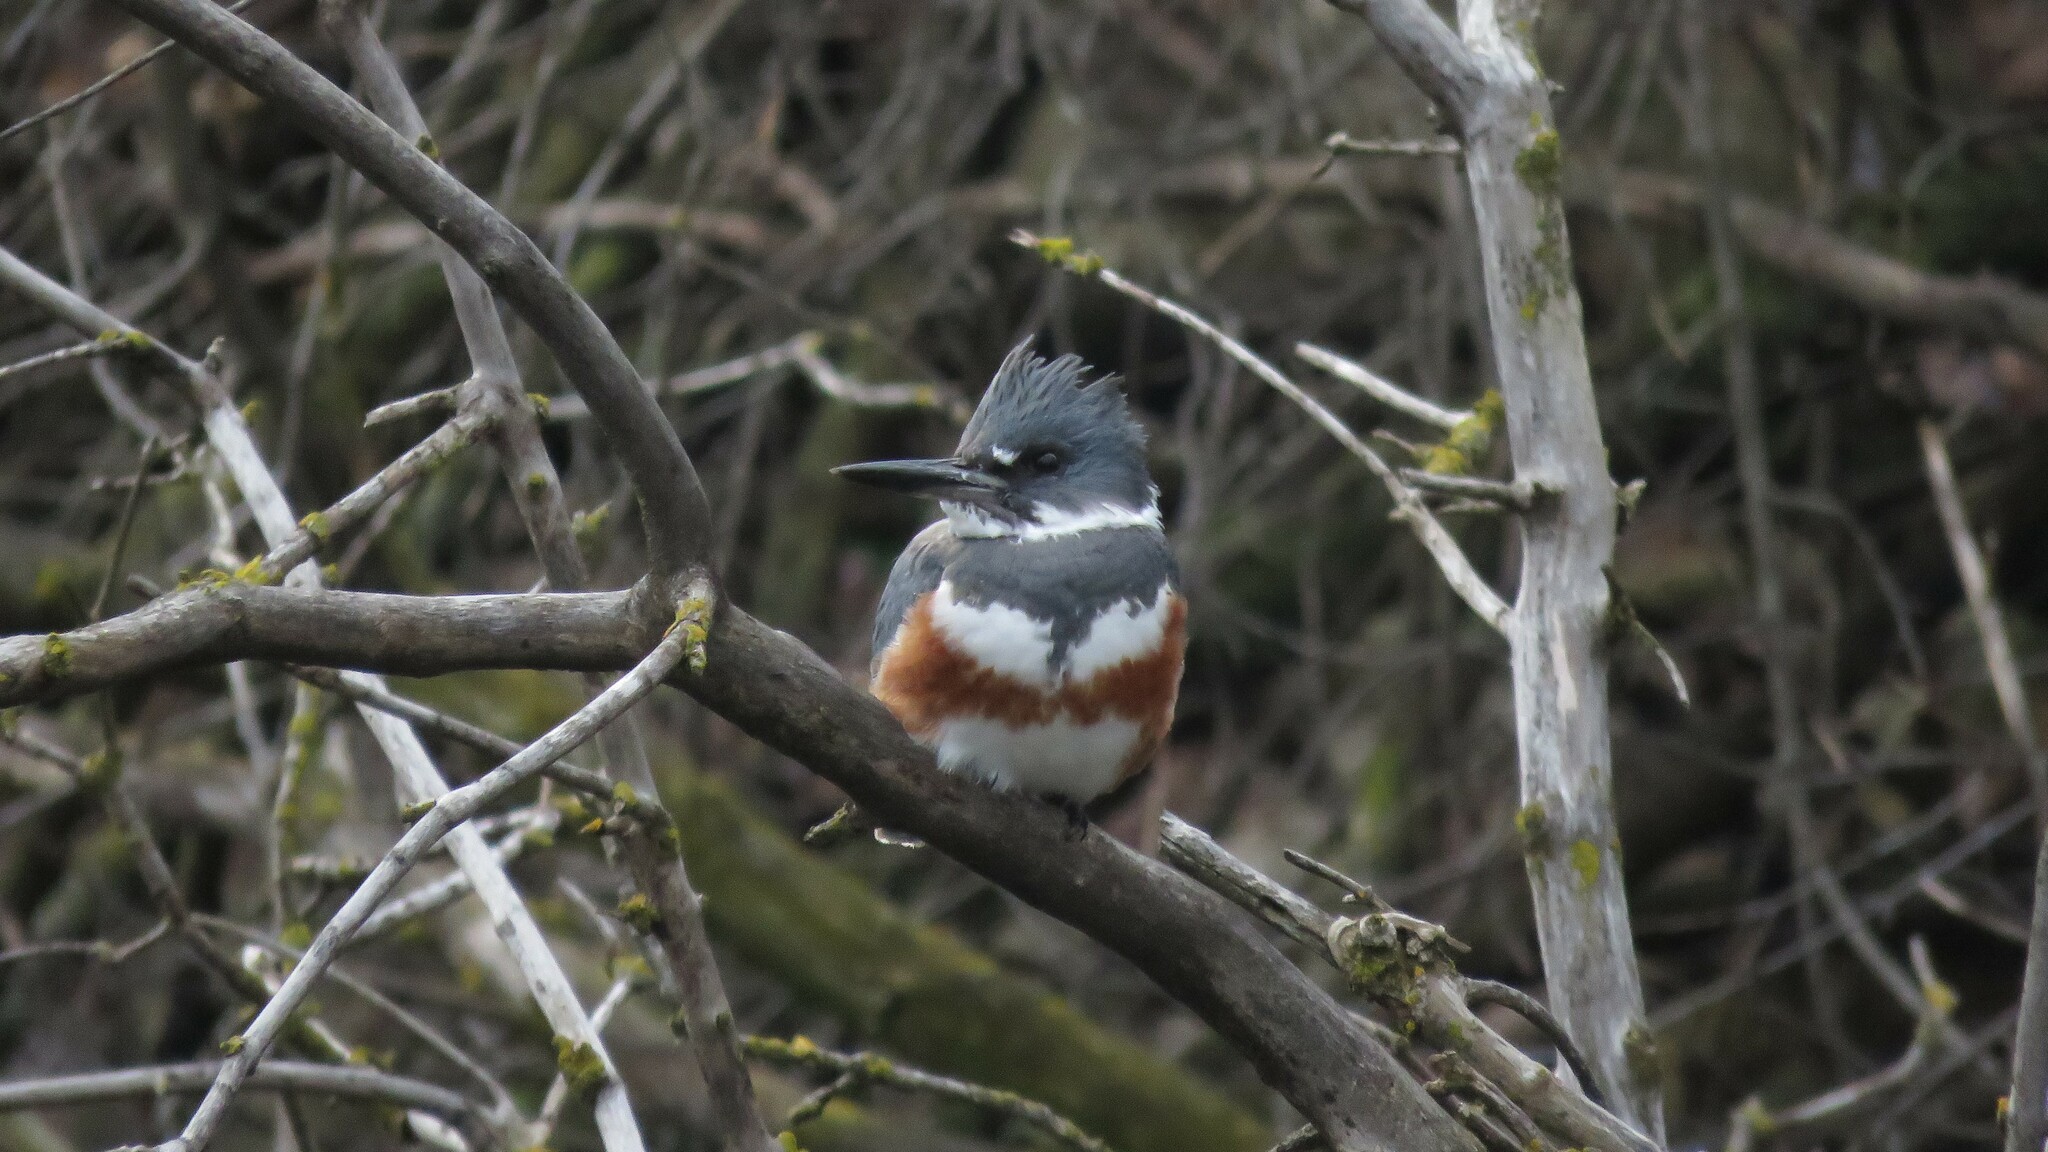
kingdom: Animalia
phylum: Chordata
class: Aves
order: Coraciiformes
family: Alcedinidae
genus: Megaceryle
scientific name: Megaceryle alcyon
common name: Belted kingfisher
